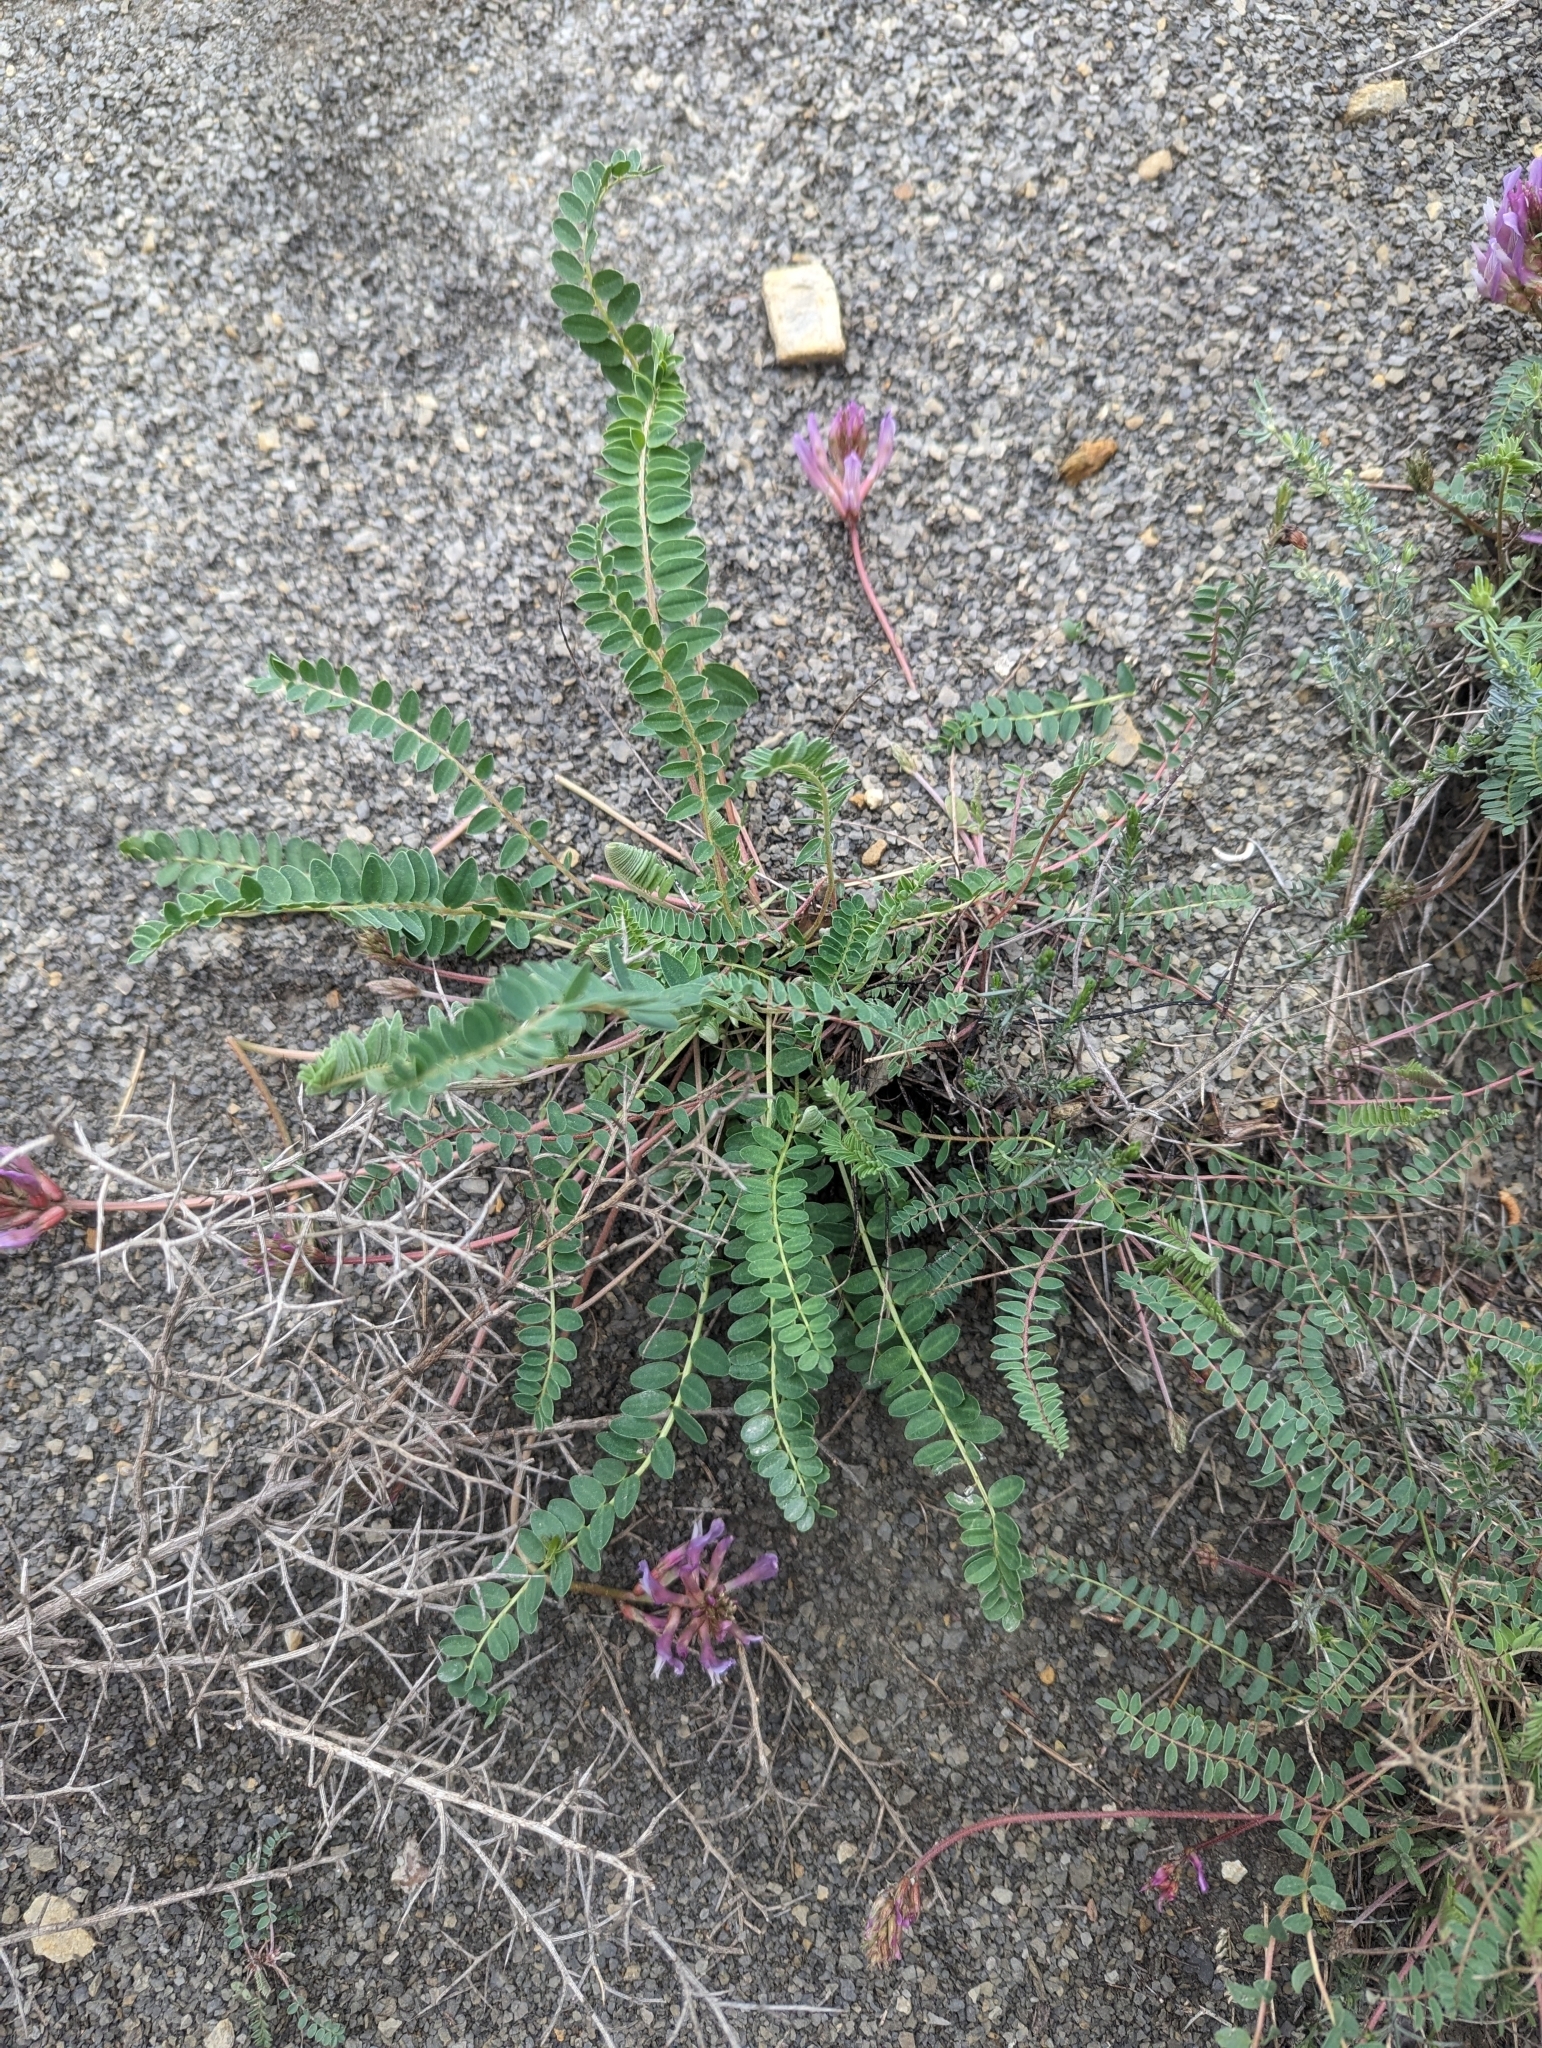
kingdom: Plantae
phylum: Tracheophyta
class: Magnoliopsida
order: Fabales
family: Fabaceae
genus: Astragalus
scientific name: Astragalus monspessulanus
